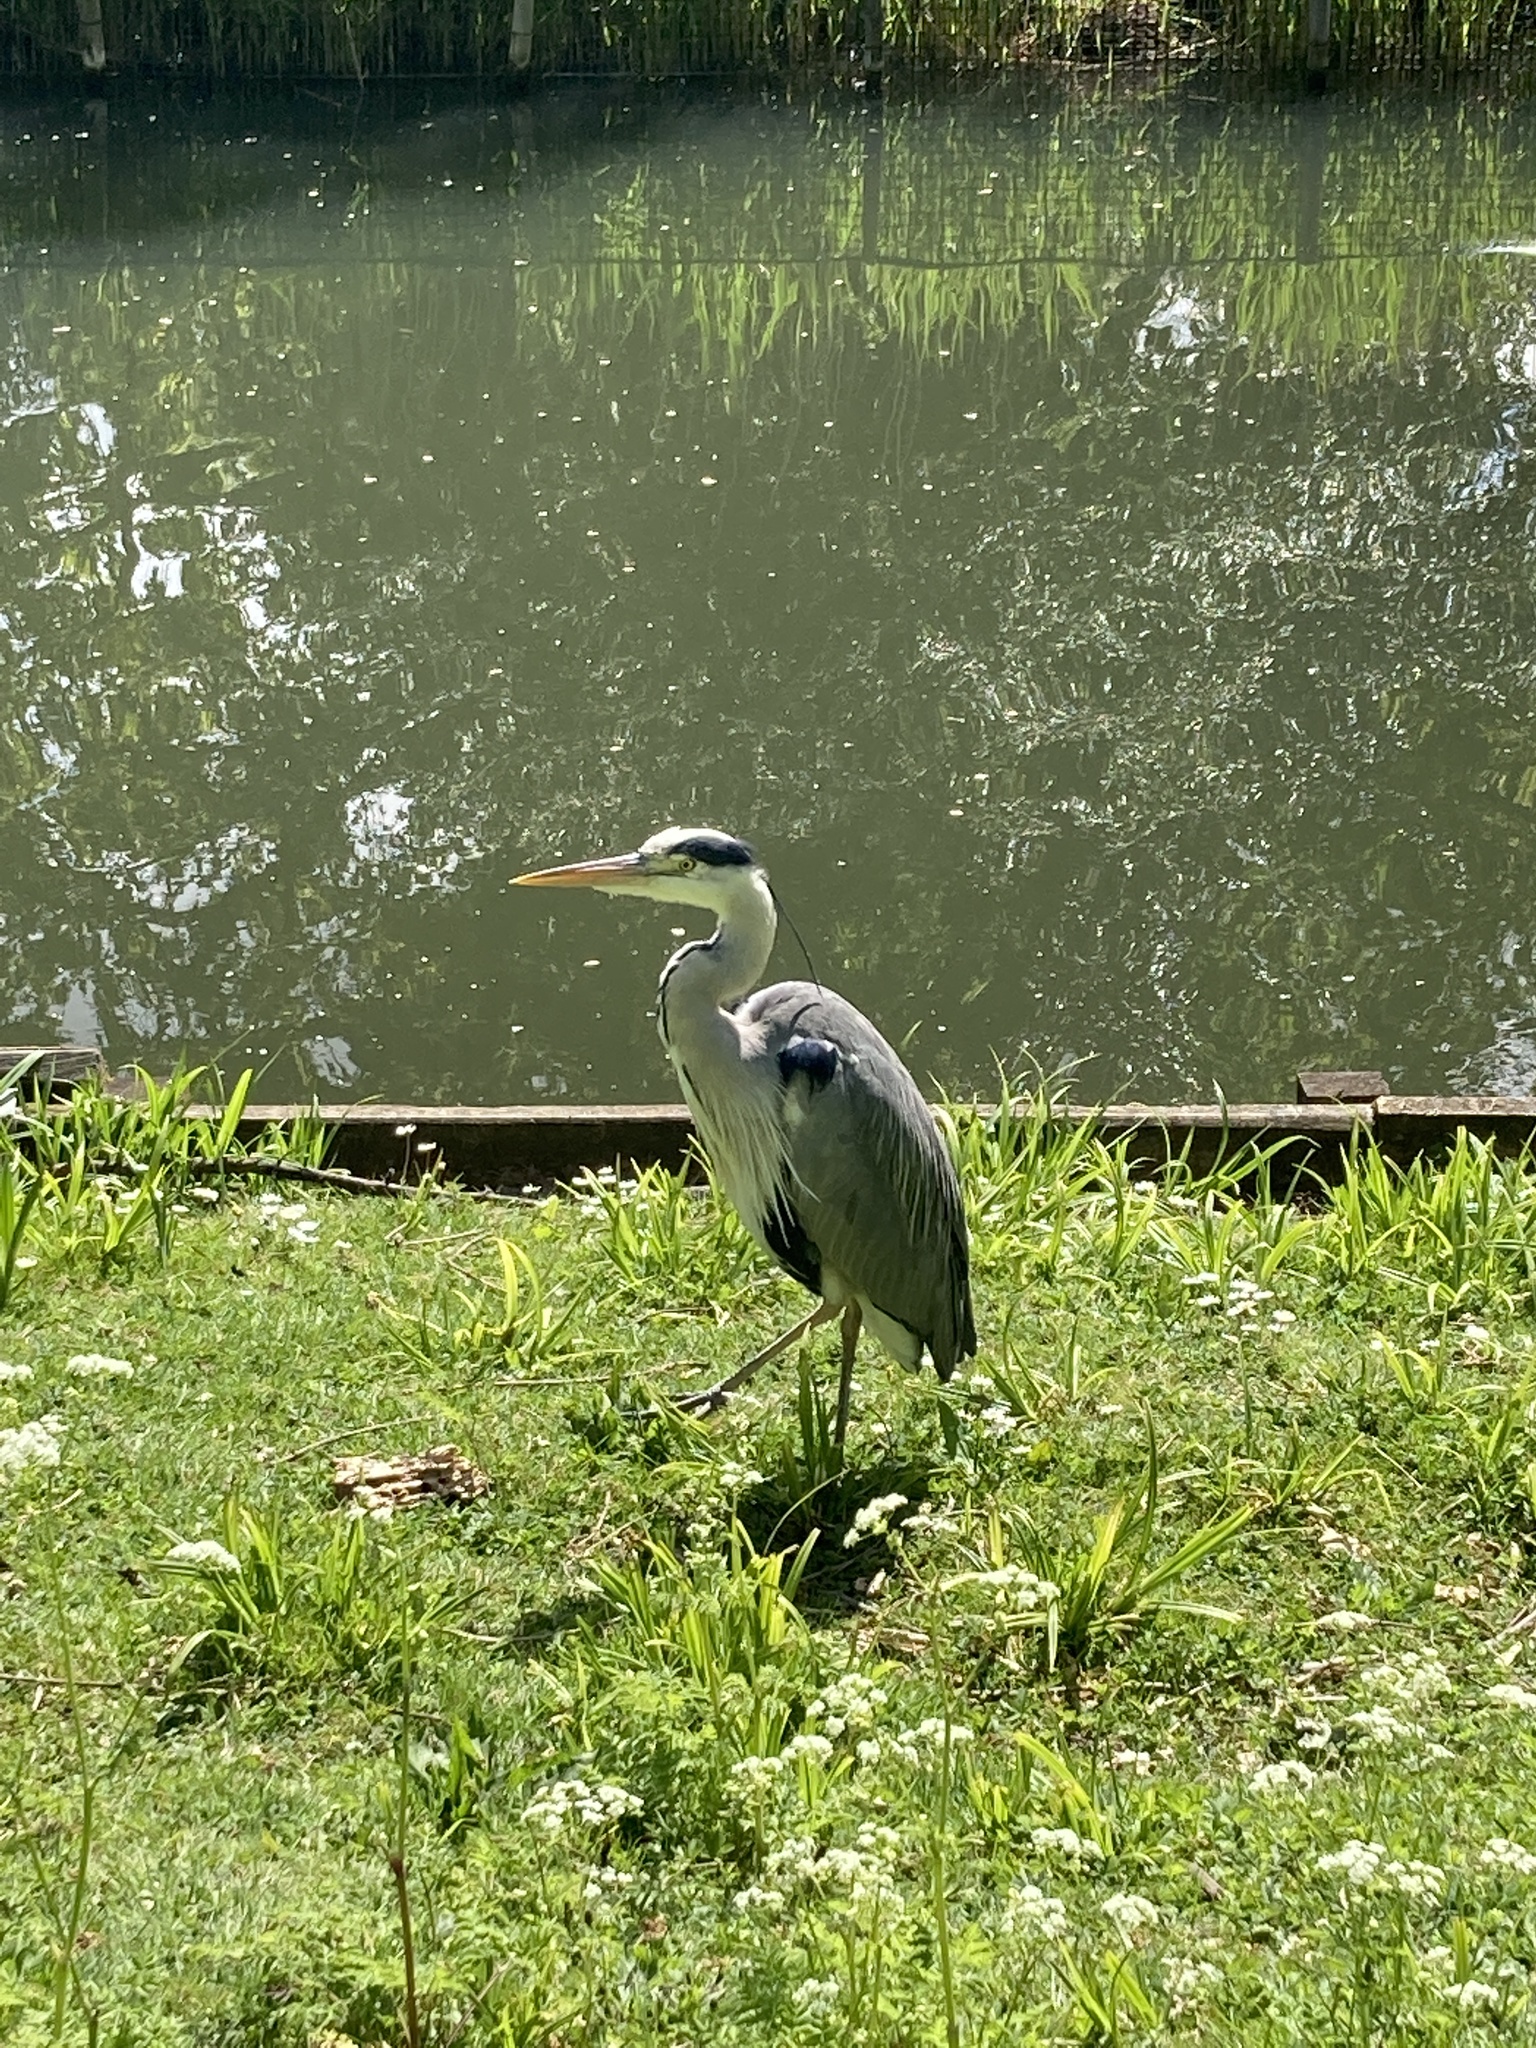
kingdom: Animalia
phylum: Chordata
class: Aves
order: Pelecaniformes
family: Ardeidae
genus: Ardea
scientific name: Ardea cinerea
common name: Grey heron
